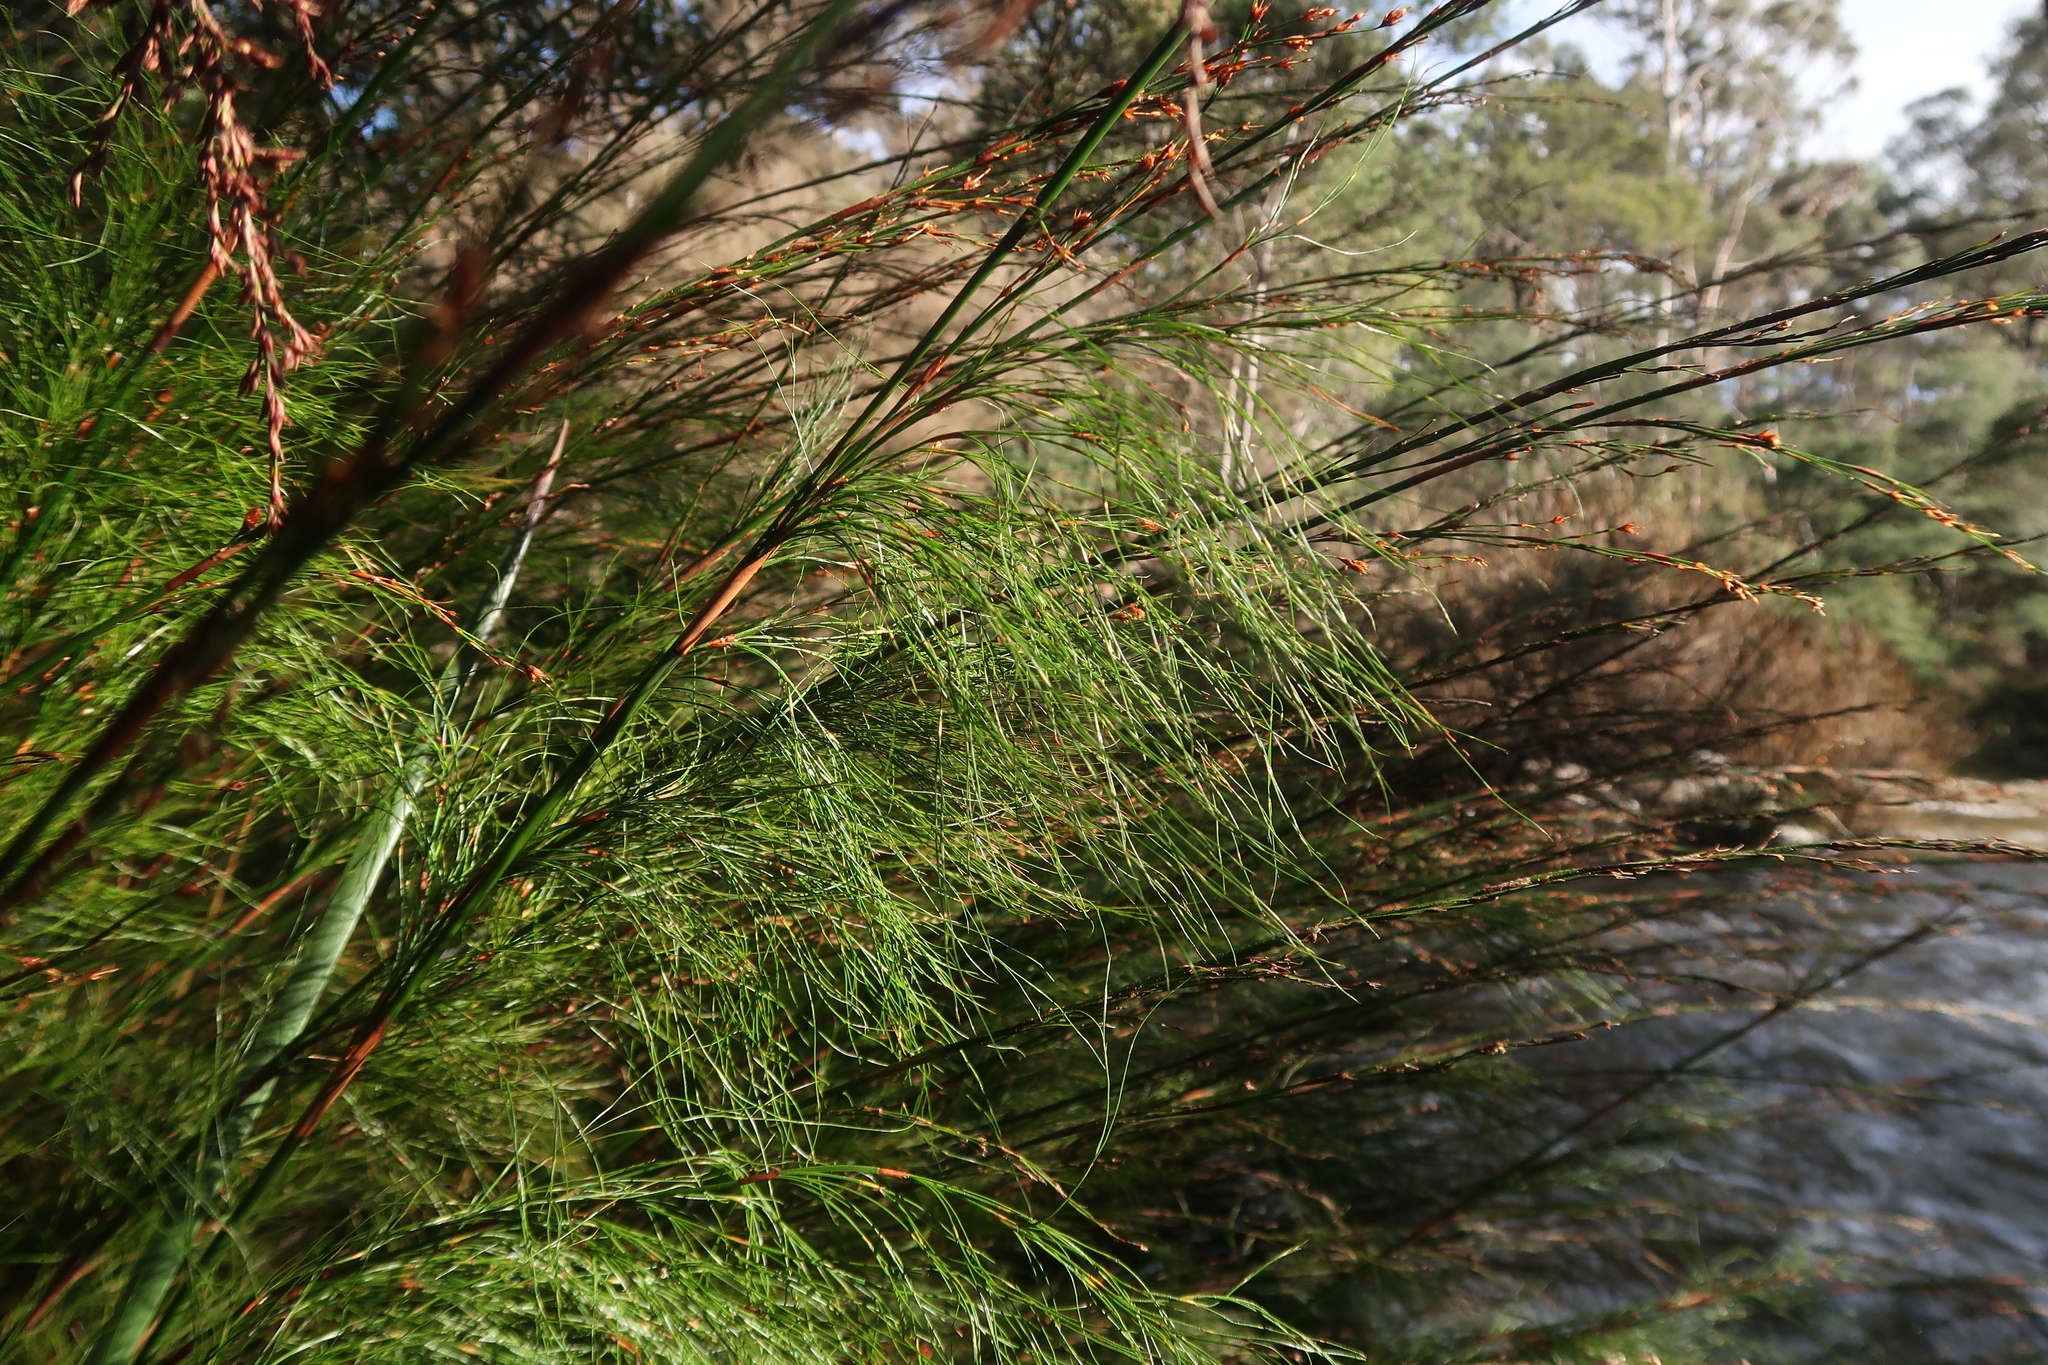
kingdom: Plantae
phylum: Tracheophyta
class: Liliopsida
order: Poales
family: Restionaceae
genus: Baloskion
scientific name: Baloskion tetraphyllum
